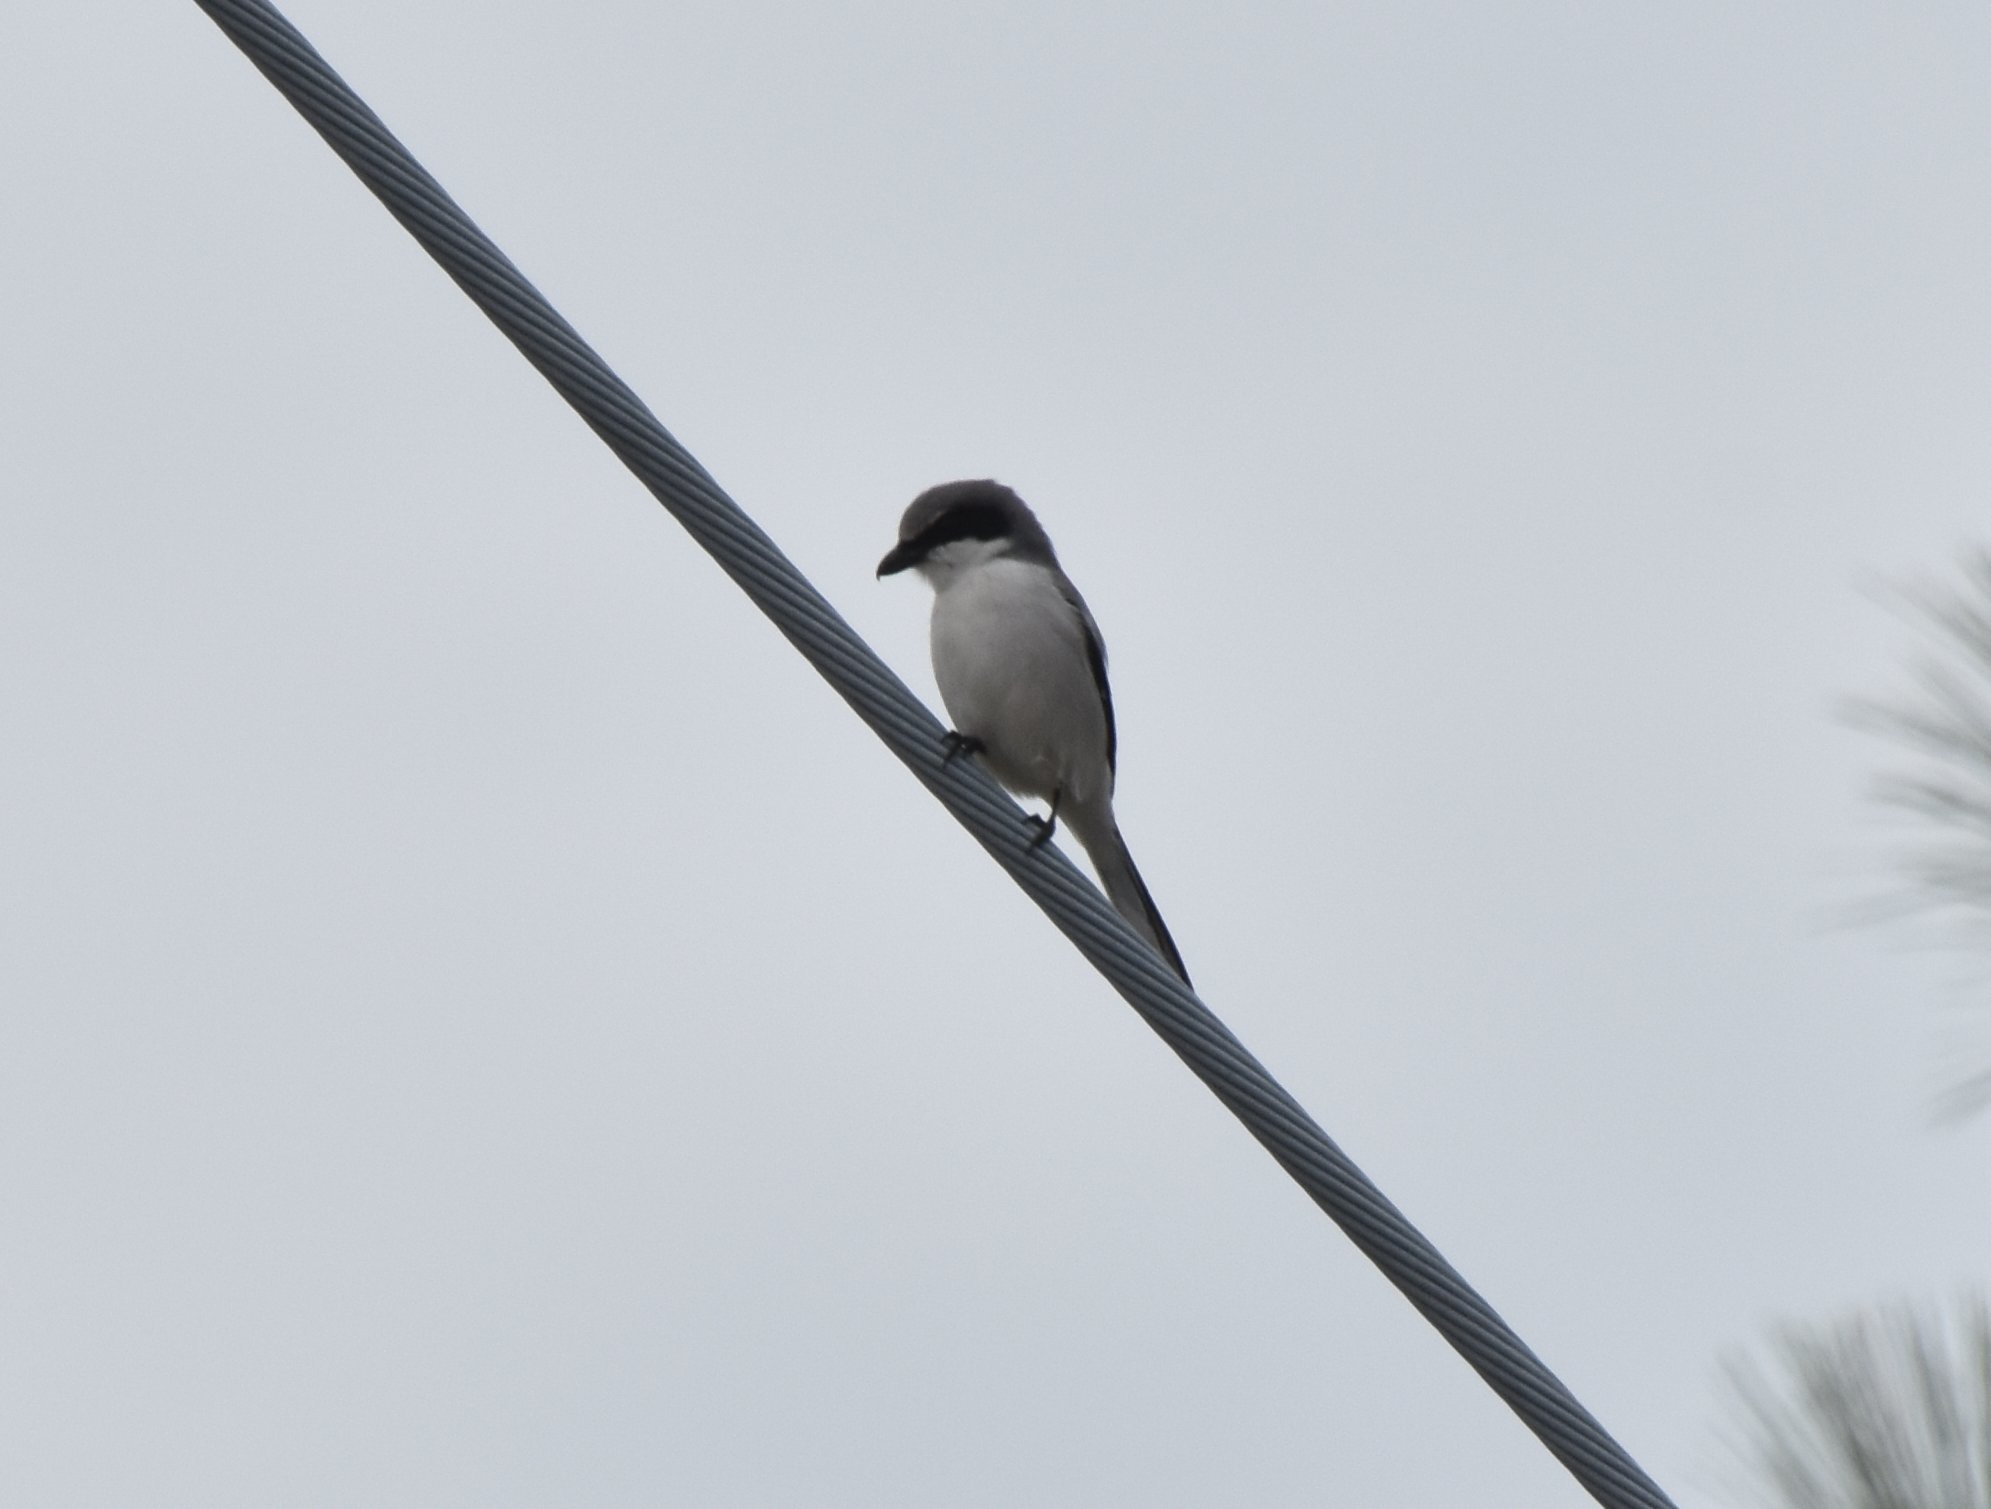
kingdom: Animalia
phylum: Chordata
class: Aves
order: Passeriformes
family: Laniidae
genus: Lanius
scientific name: Lanius ludovicianus
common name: Loggerhead shrike
